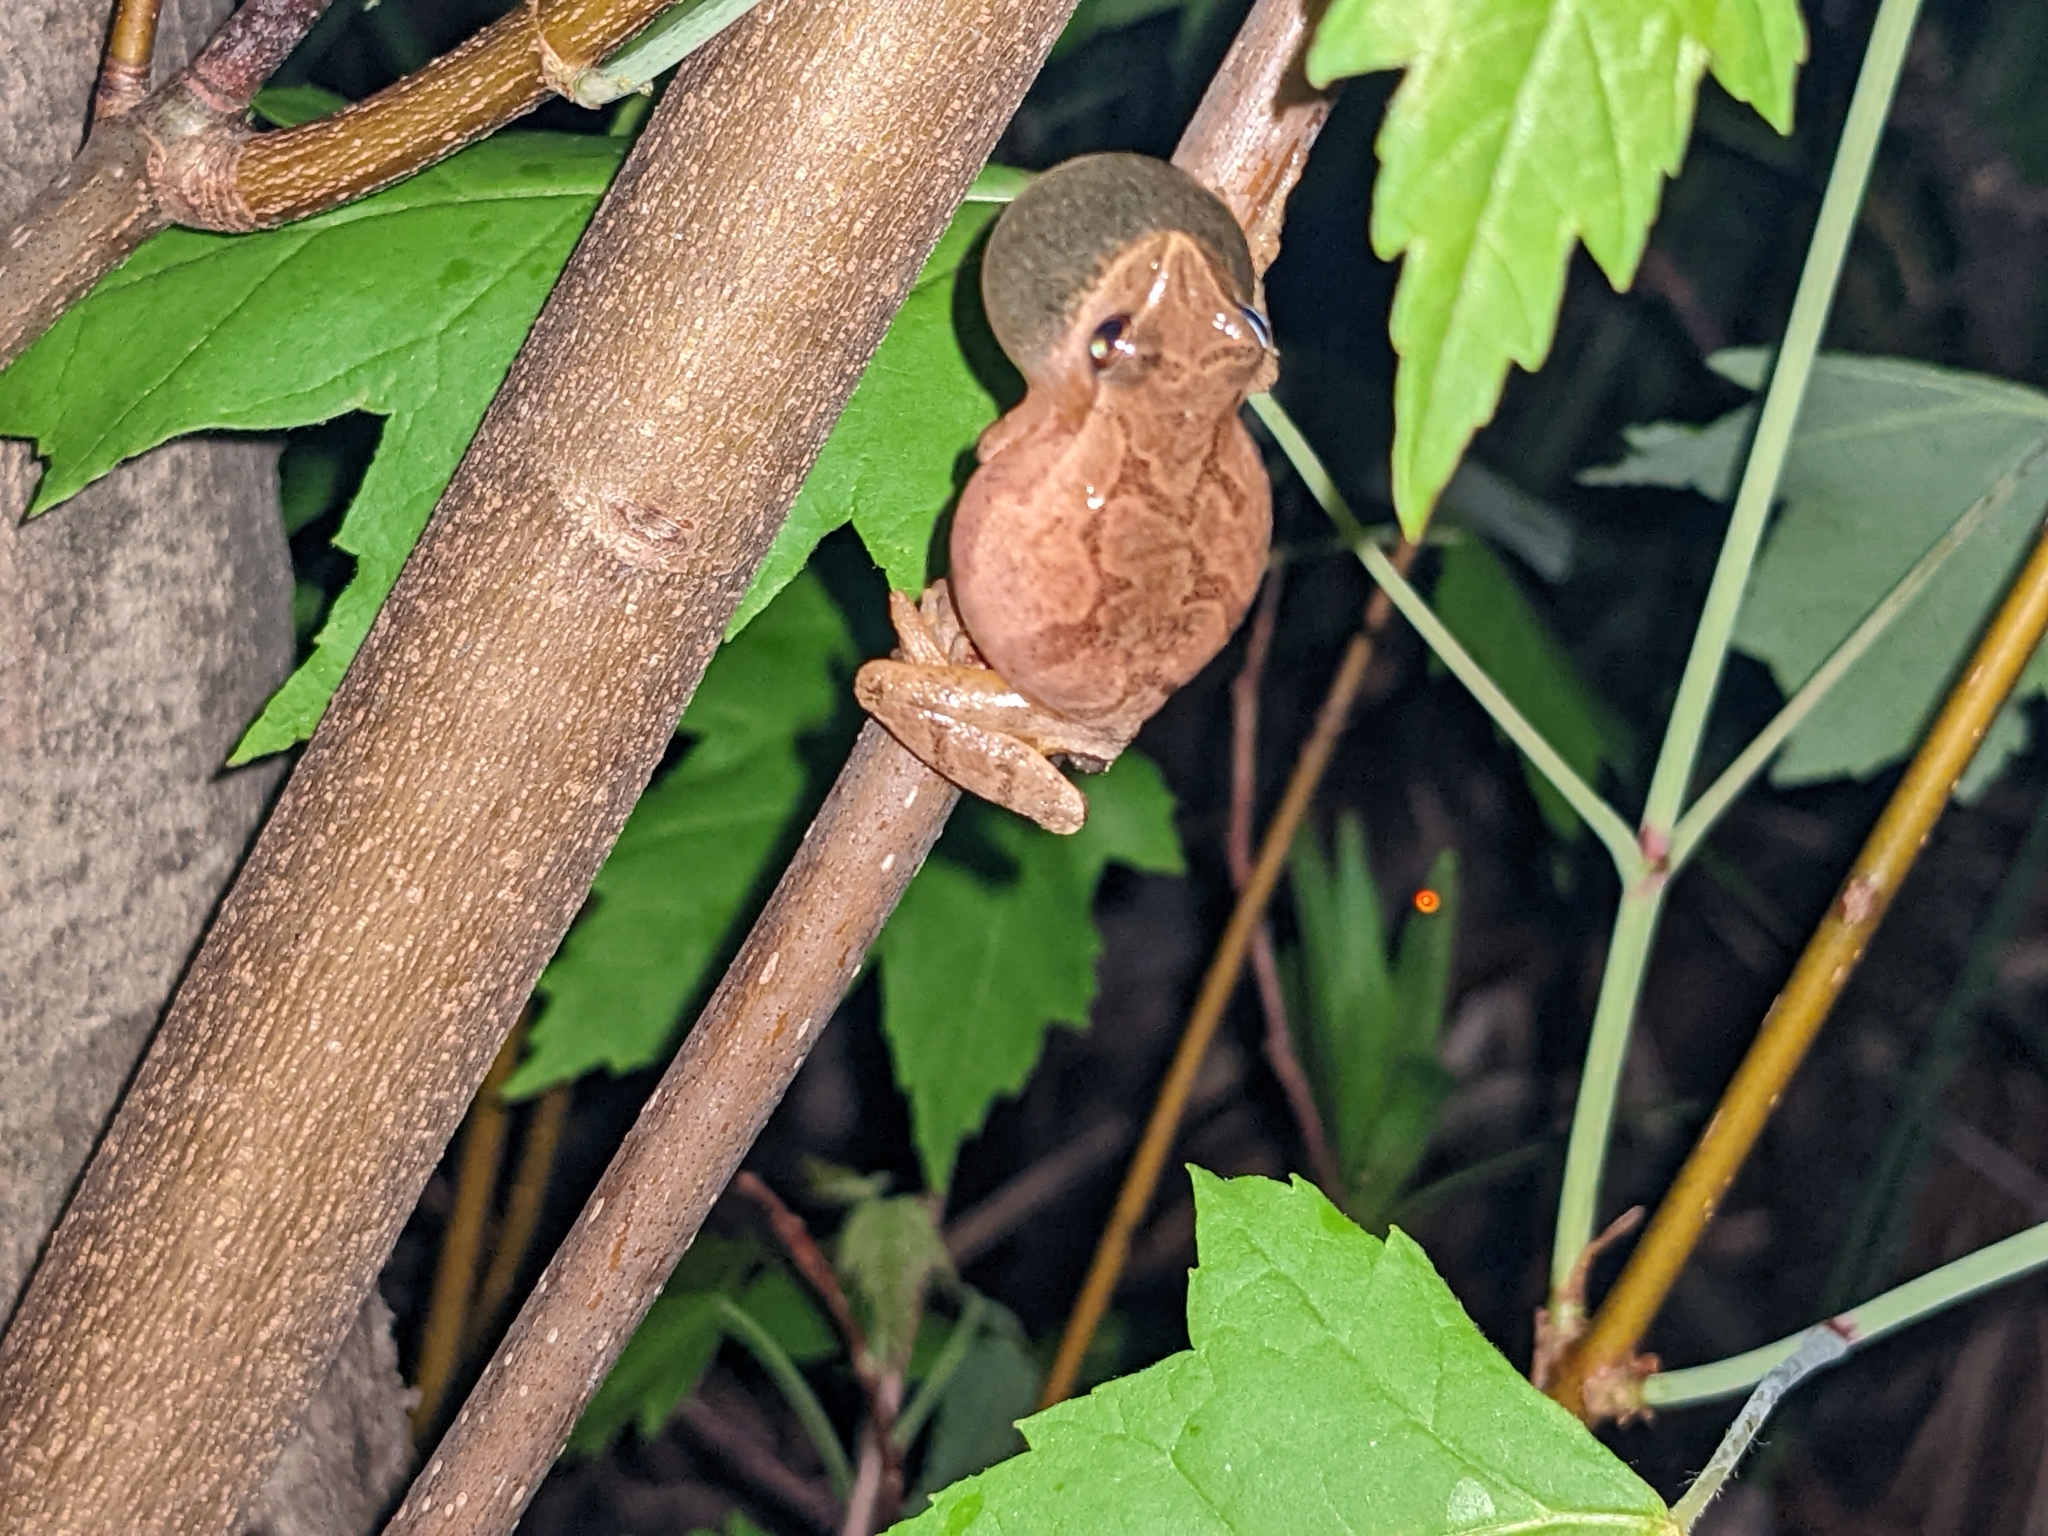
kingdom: Animalia
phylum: Chordata
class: Amphibia
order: Anura
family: Hylidae
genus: Pseudacris
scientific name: Pseudacris crucifer
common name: Spring peeper
